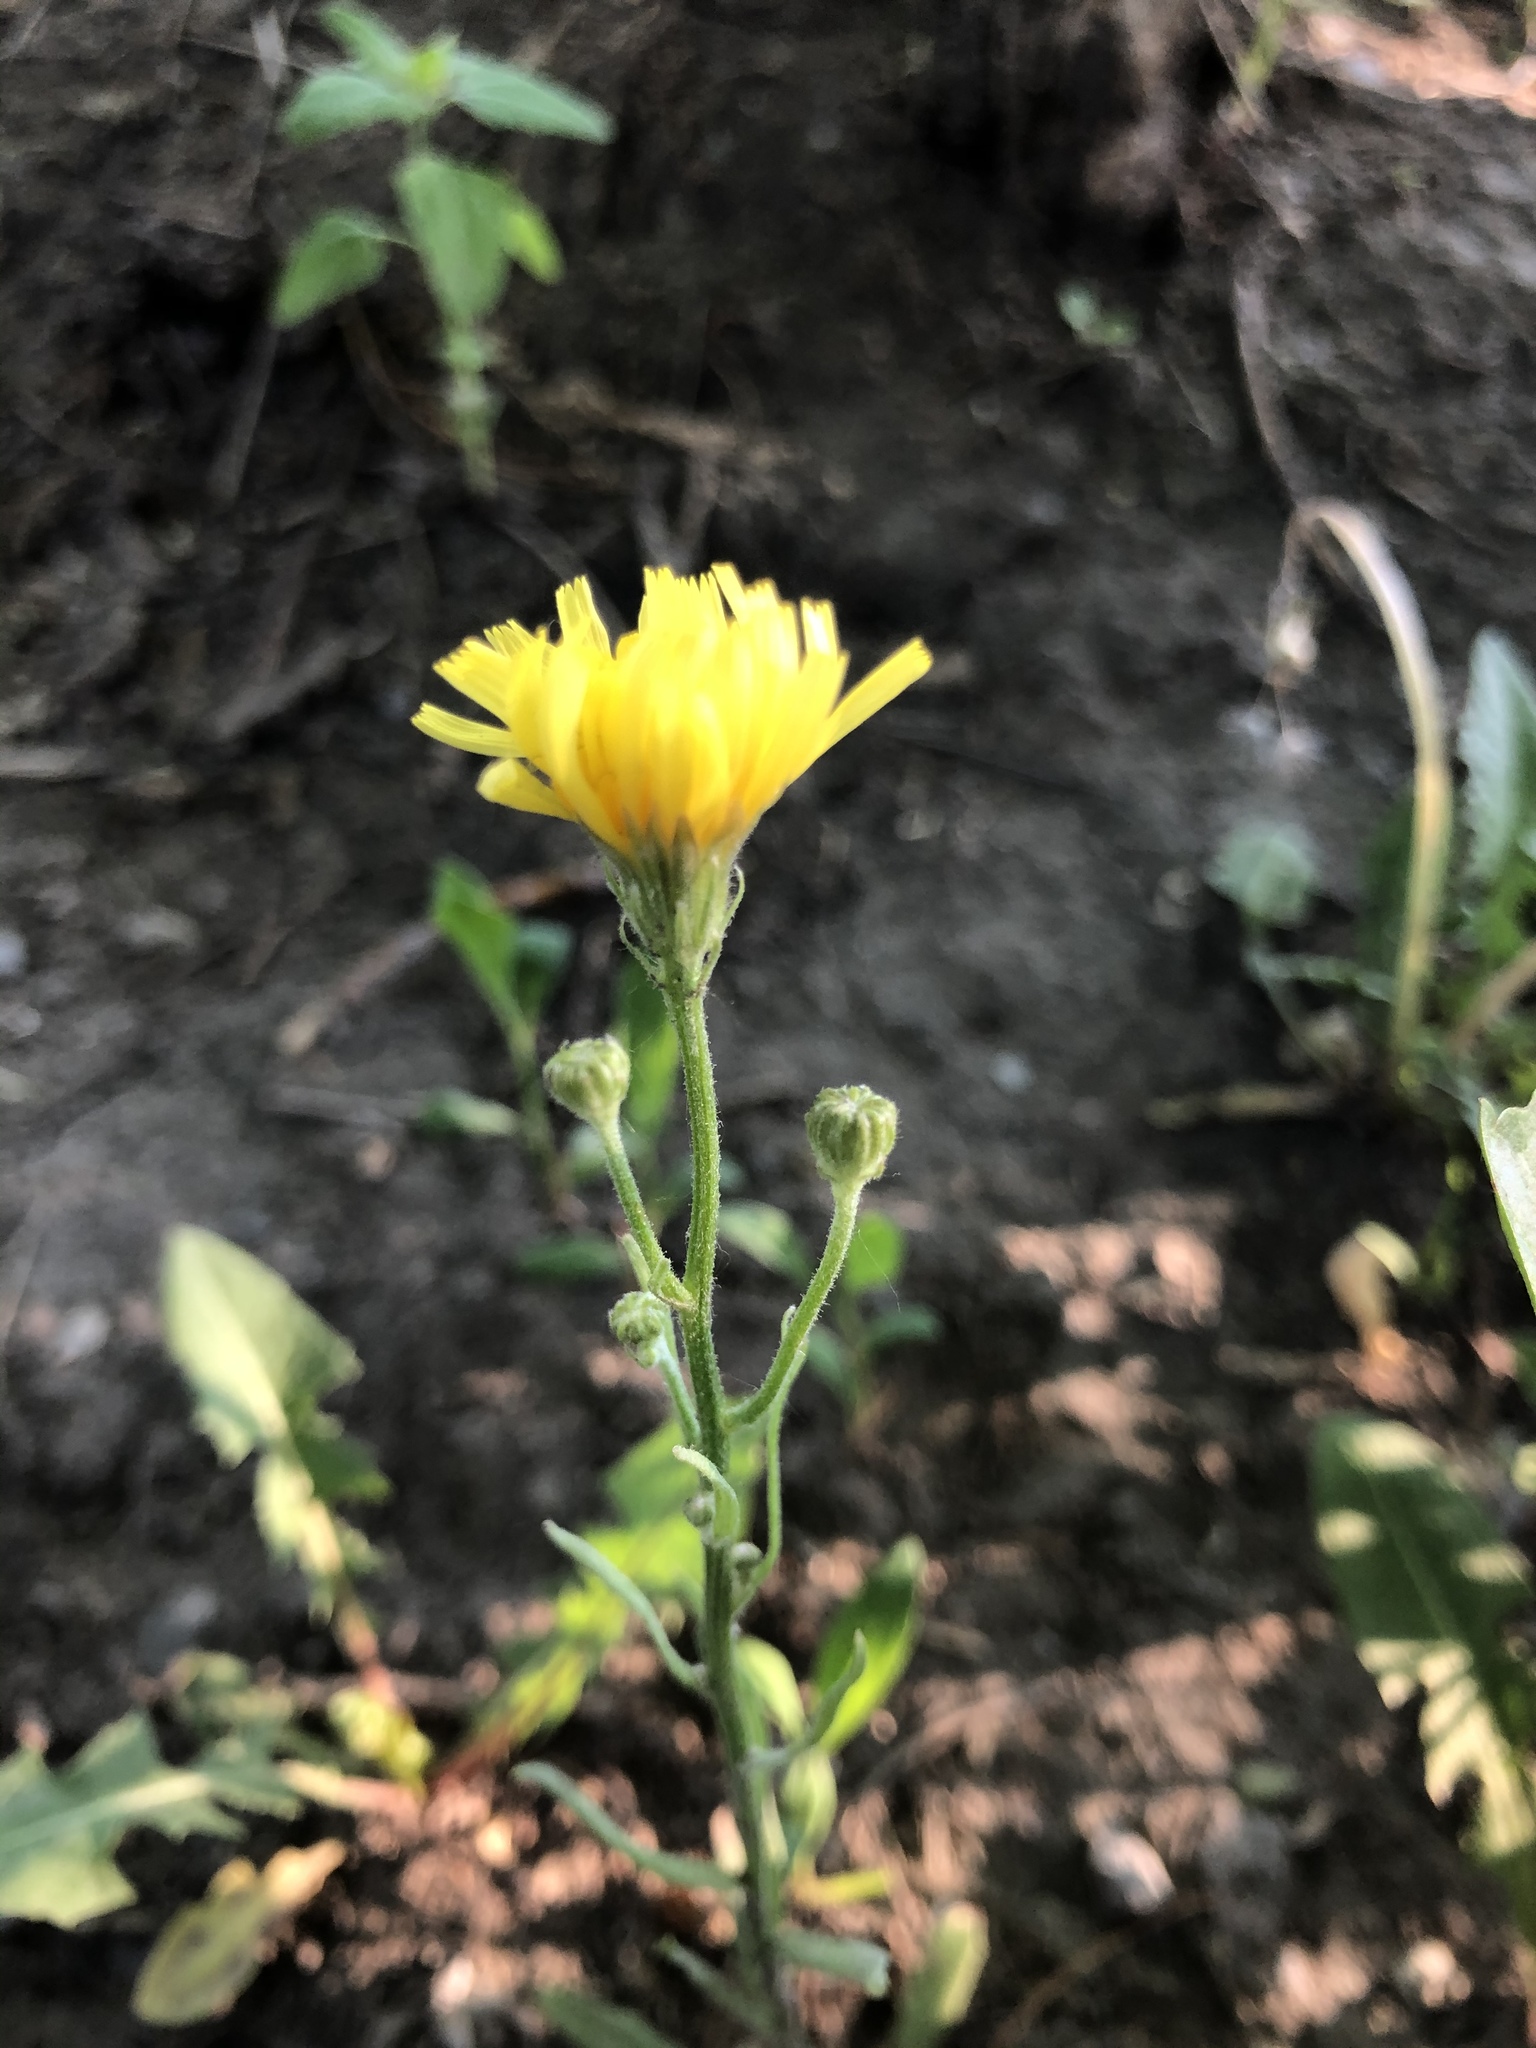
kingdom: Plantae
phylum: Tracheophyta
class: Magnoliopsida
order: Asterales
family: Asteraceae
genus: Crepis
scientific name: Crepis tectorum
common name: Narrow-leaved hawk's-beard
